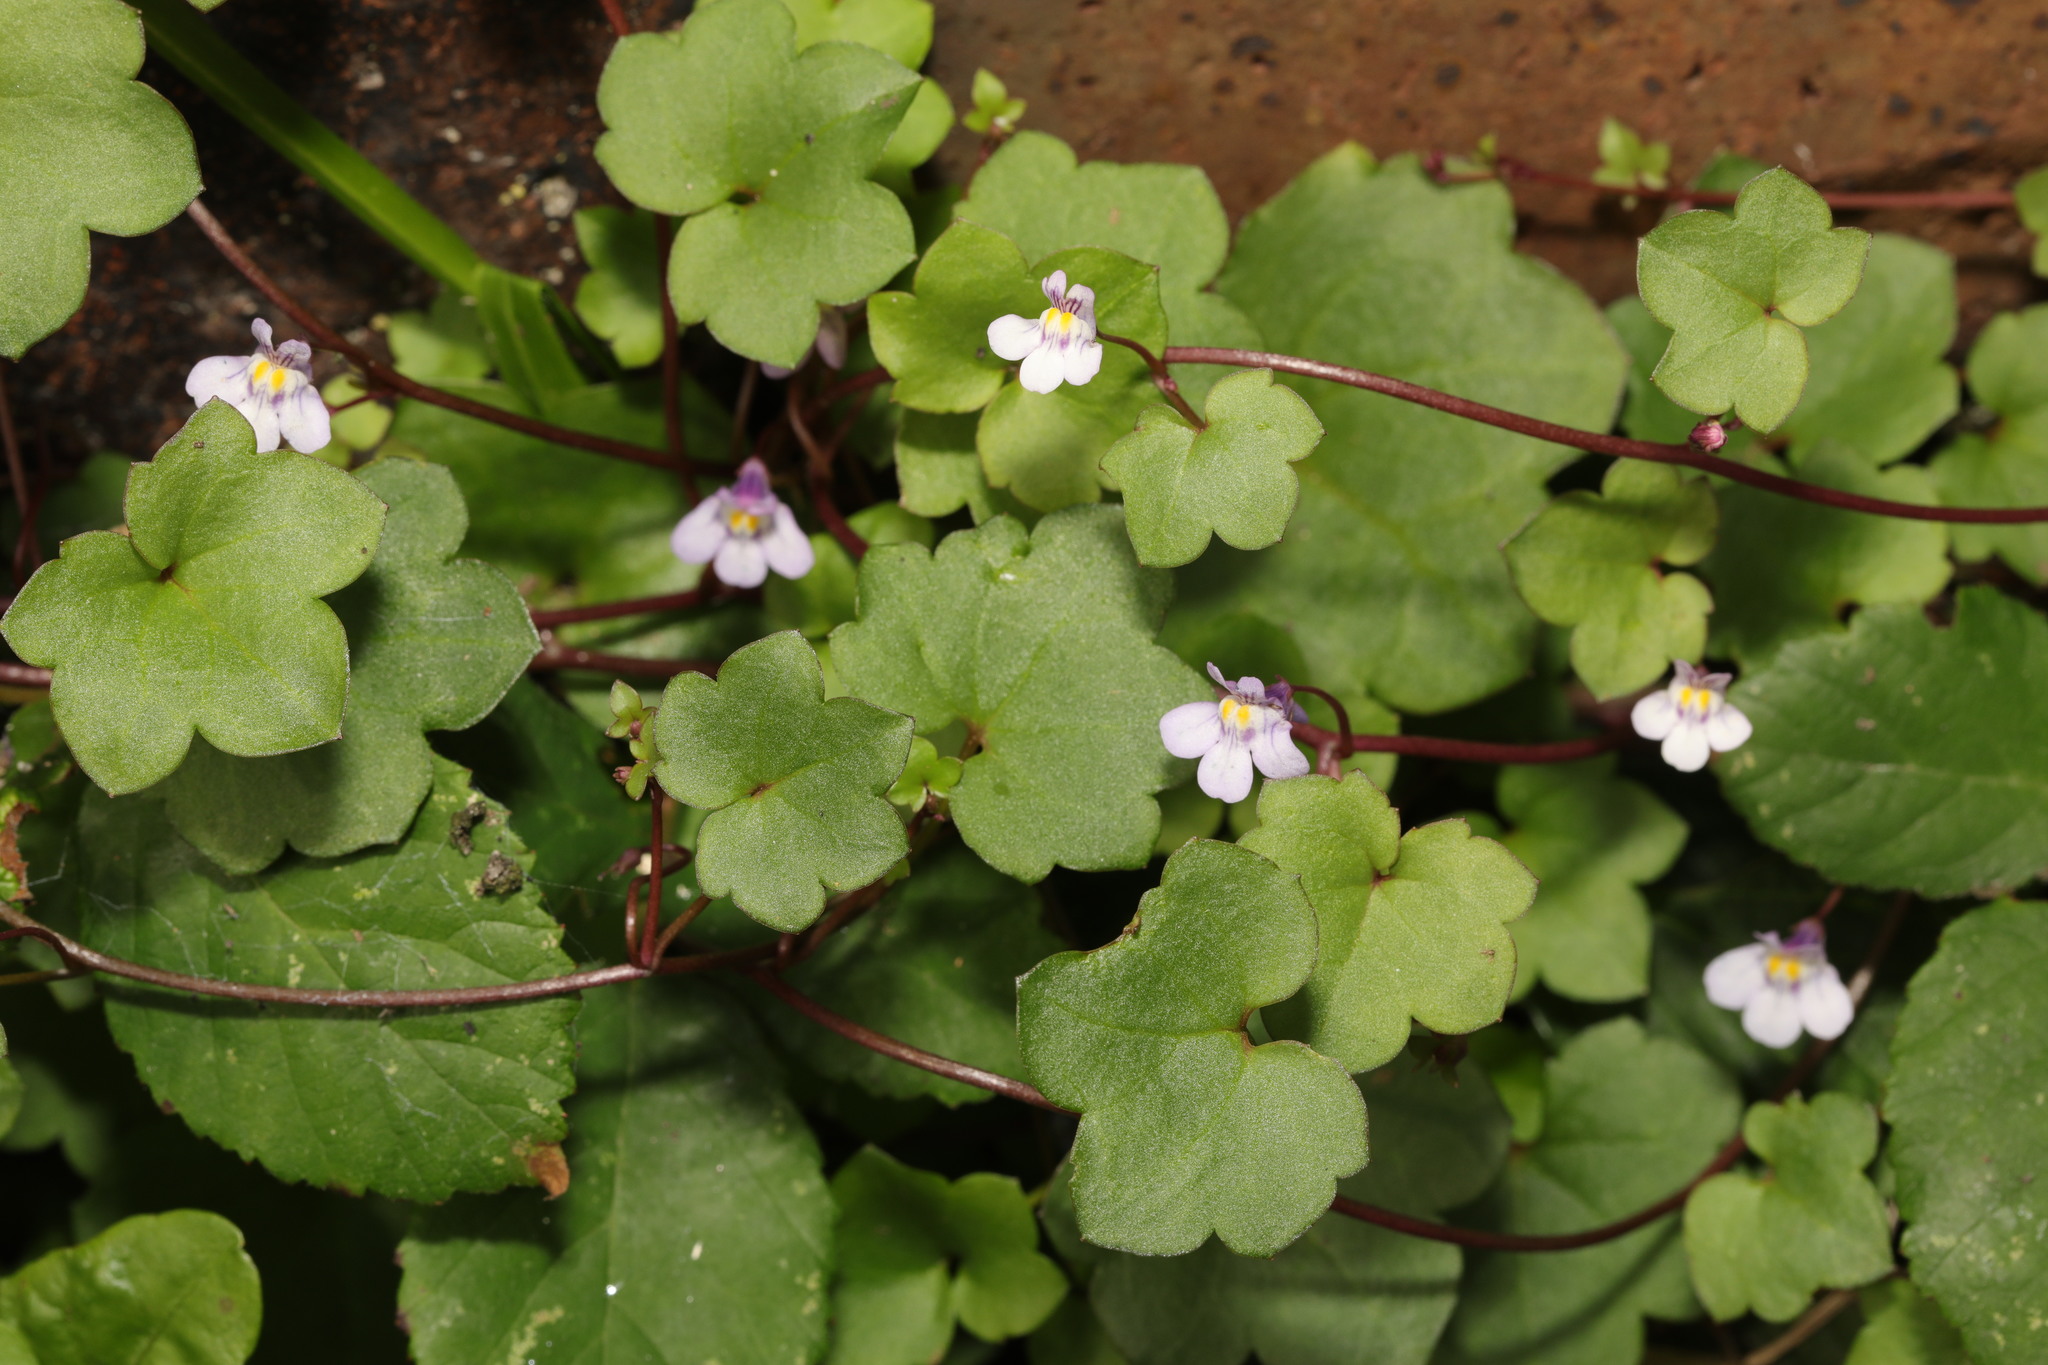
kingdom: Plantae
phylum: Tracheophyta
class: Magnoliopsida
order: Lamiales
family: Plantaginaceae
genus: Cymbalaria
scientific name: Cymbalaria muralis
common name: Ivy-leaved toadflax
